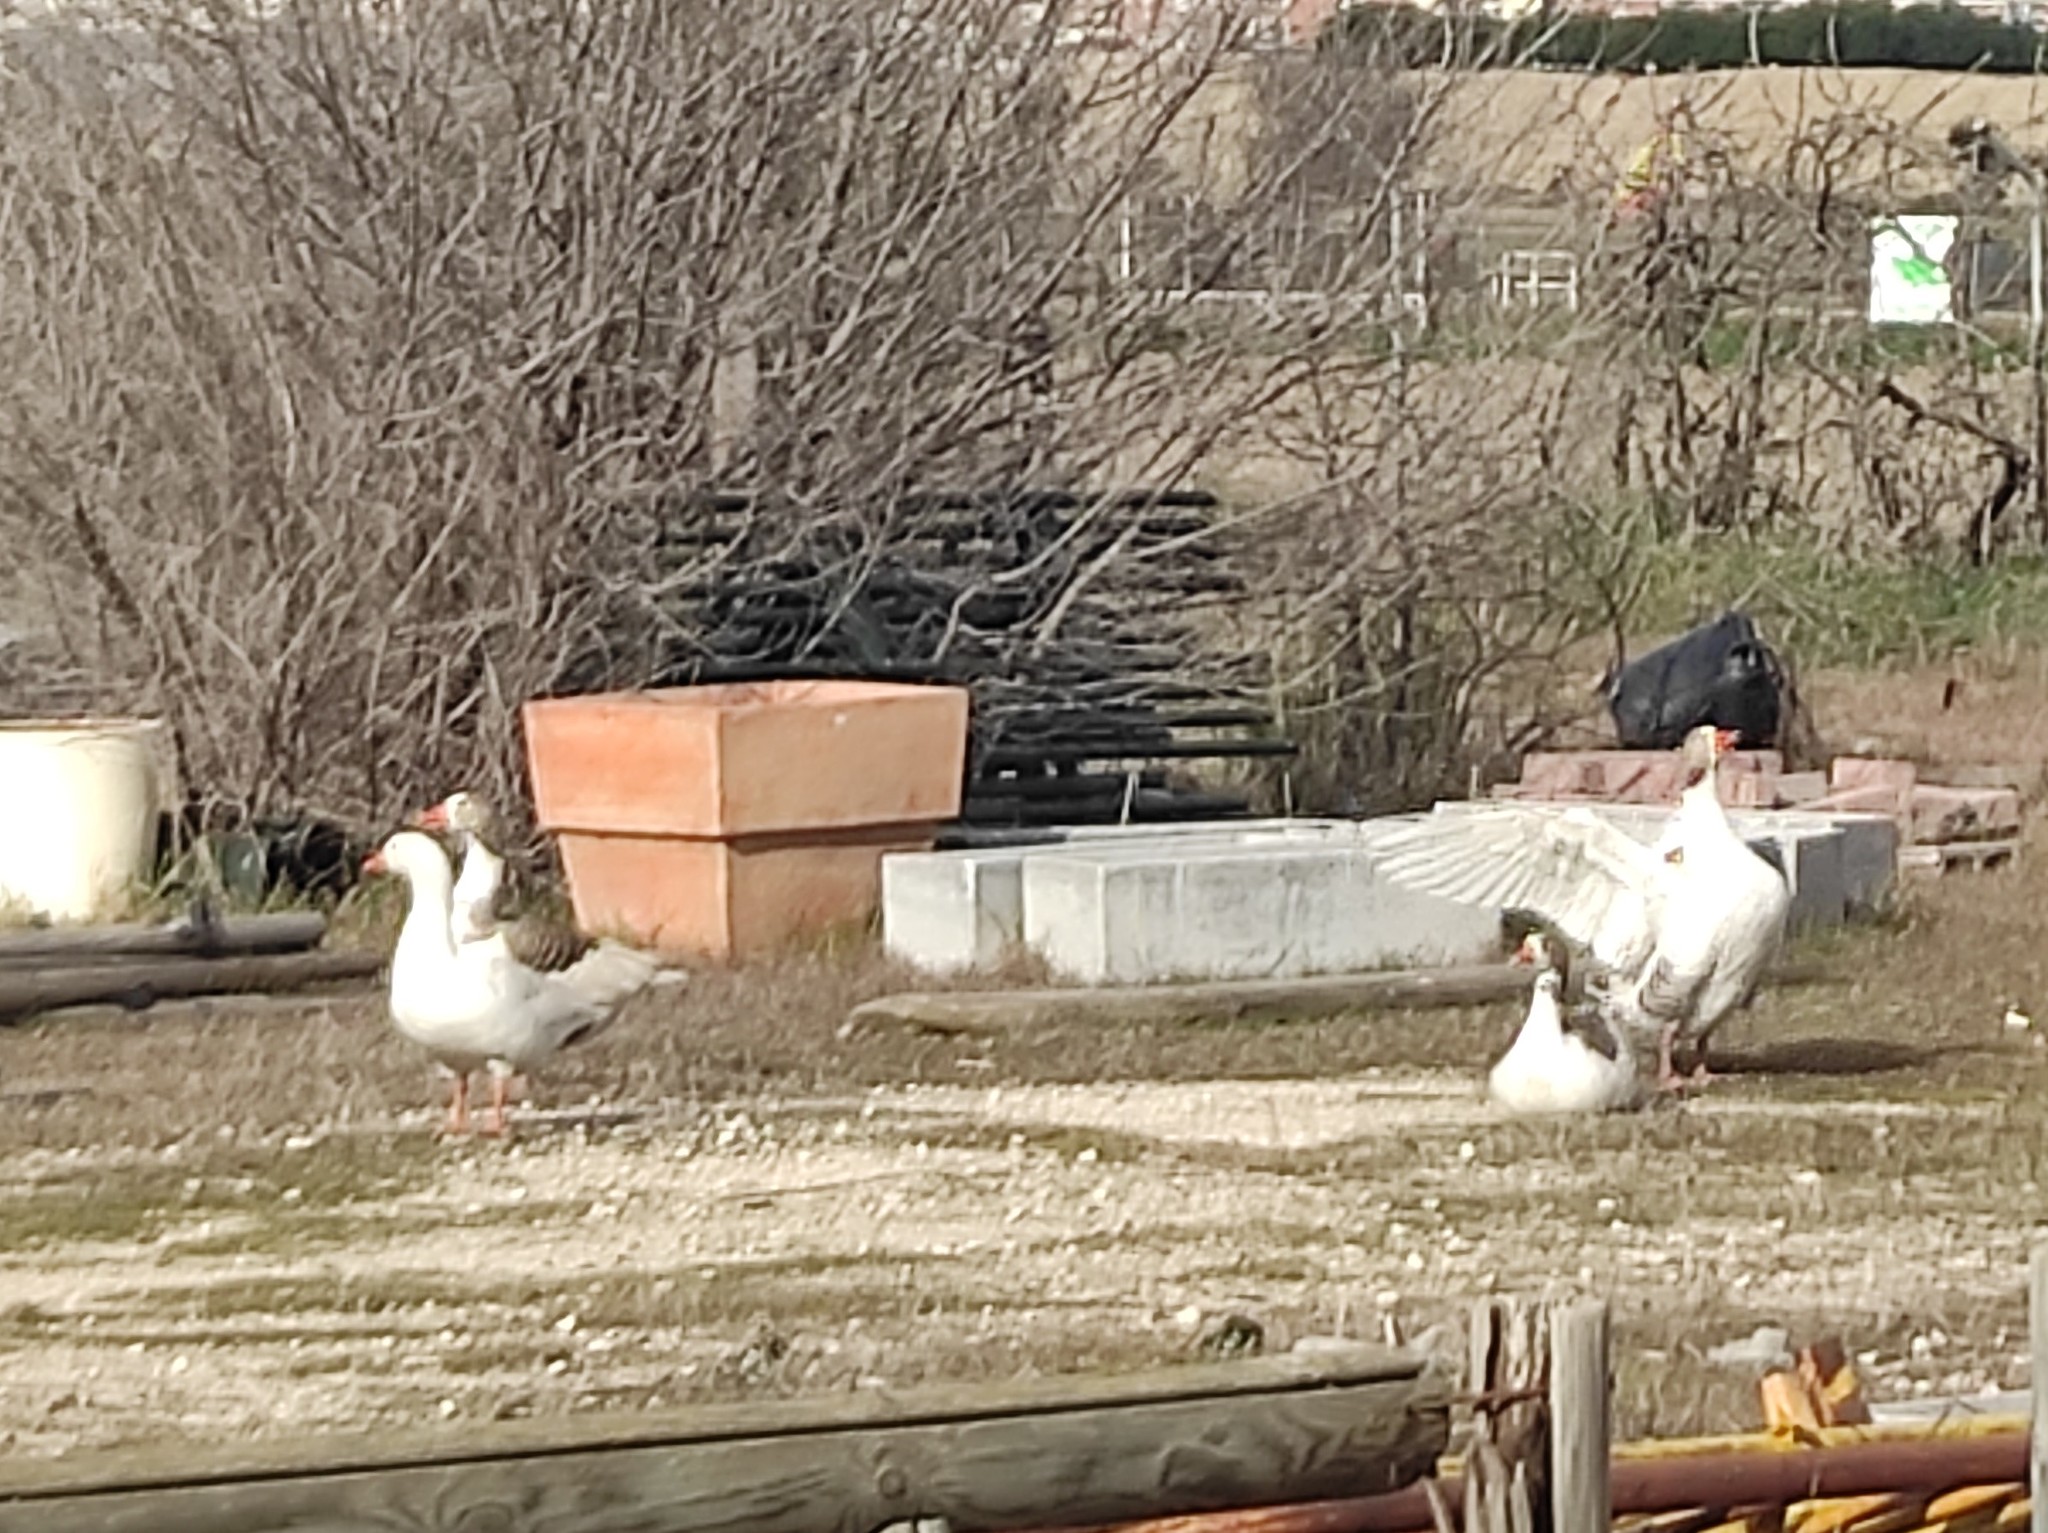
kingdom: Animalia
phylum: Chordata
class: Aves
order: Anseriformes
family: Anatidae
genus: Anser
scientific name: Anser anser
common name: Greylag goose
